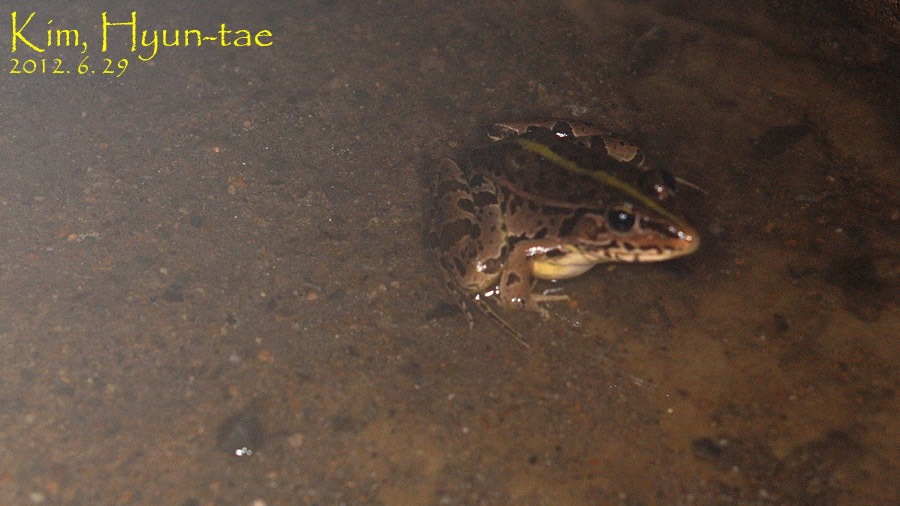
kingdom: Animalia
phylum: Chordata
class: Amphibia
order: Anura
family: Ranidae
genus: Pelophylax
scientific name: Pelophylax nigromaculatus
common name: Black-spotted pond frog
